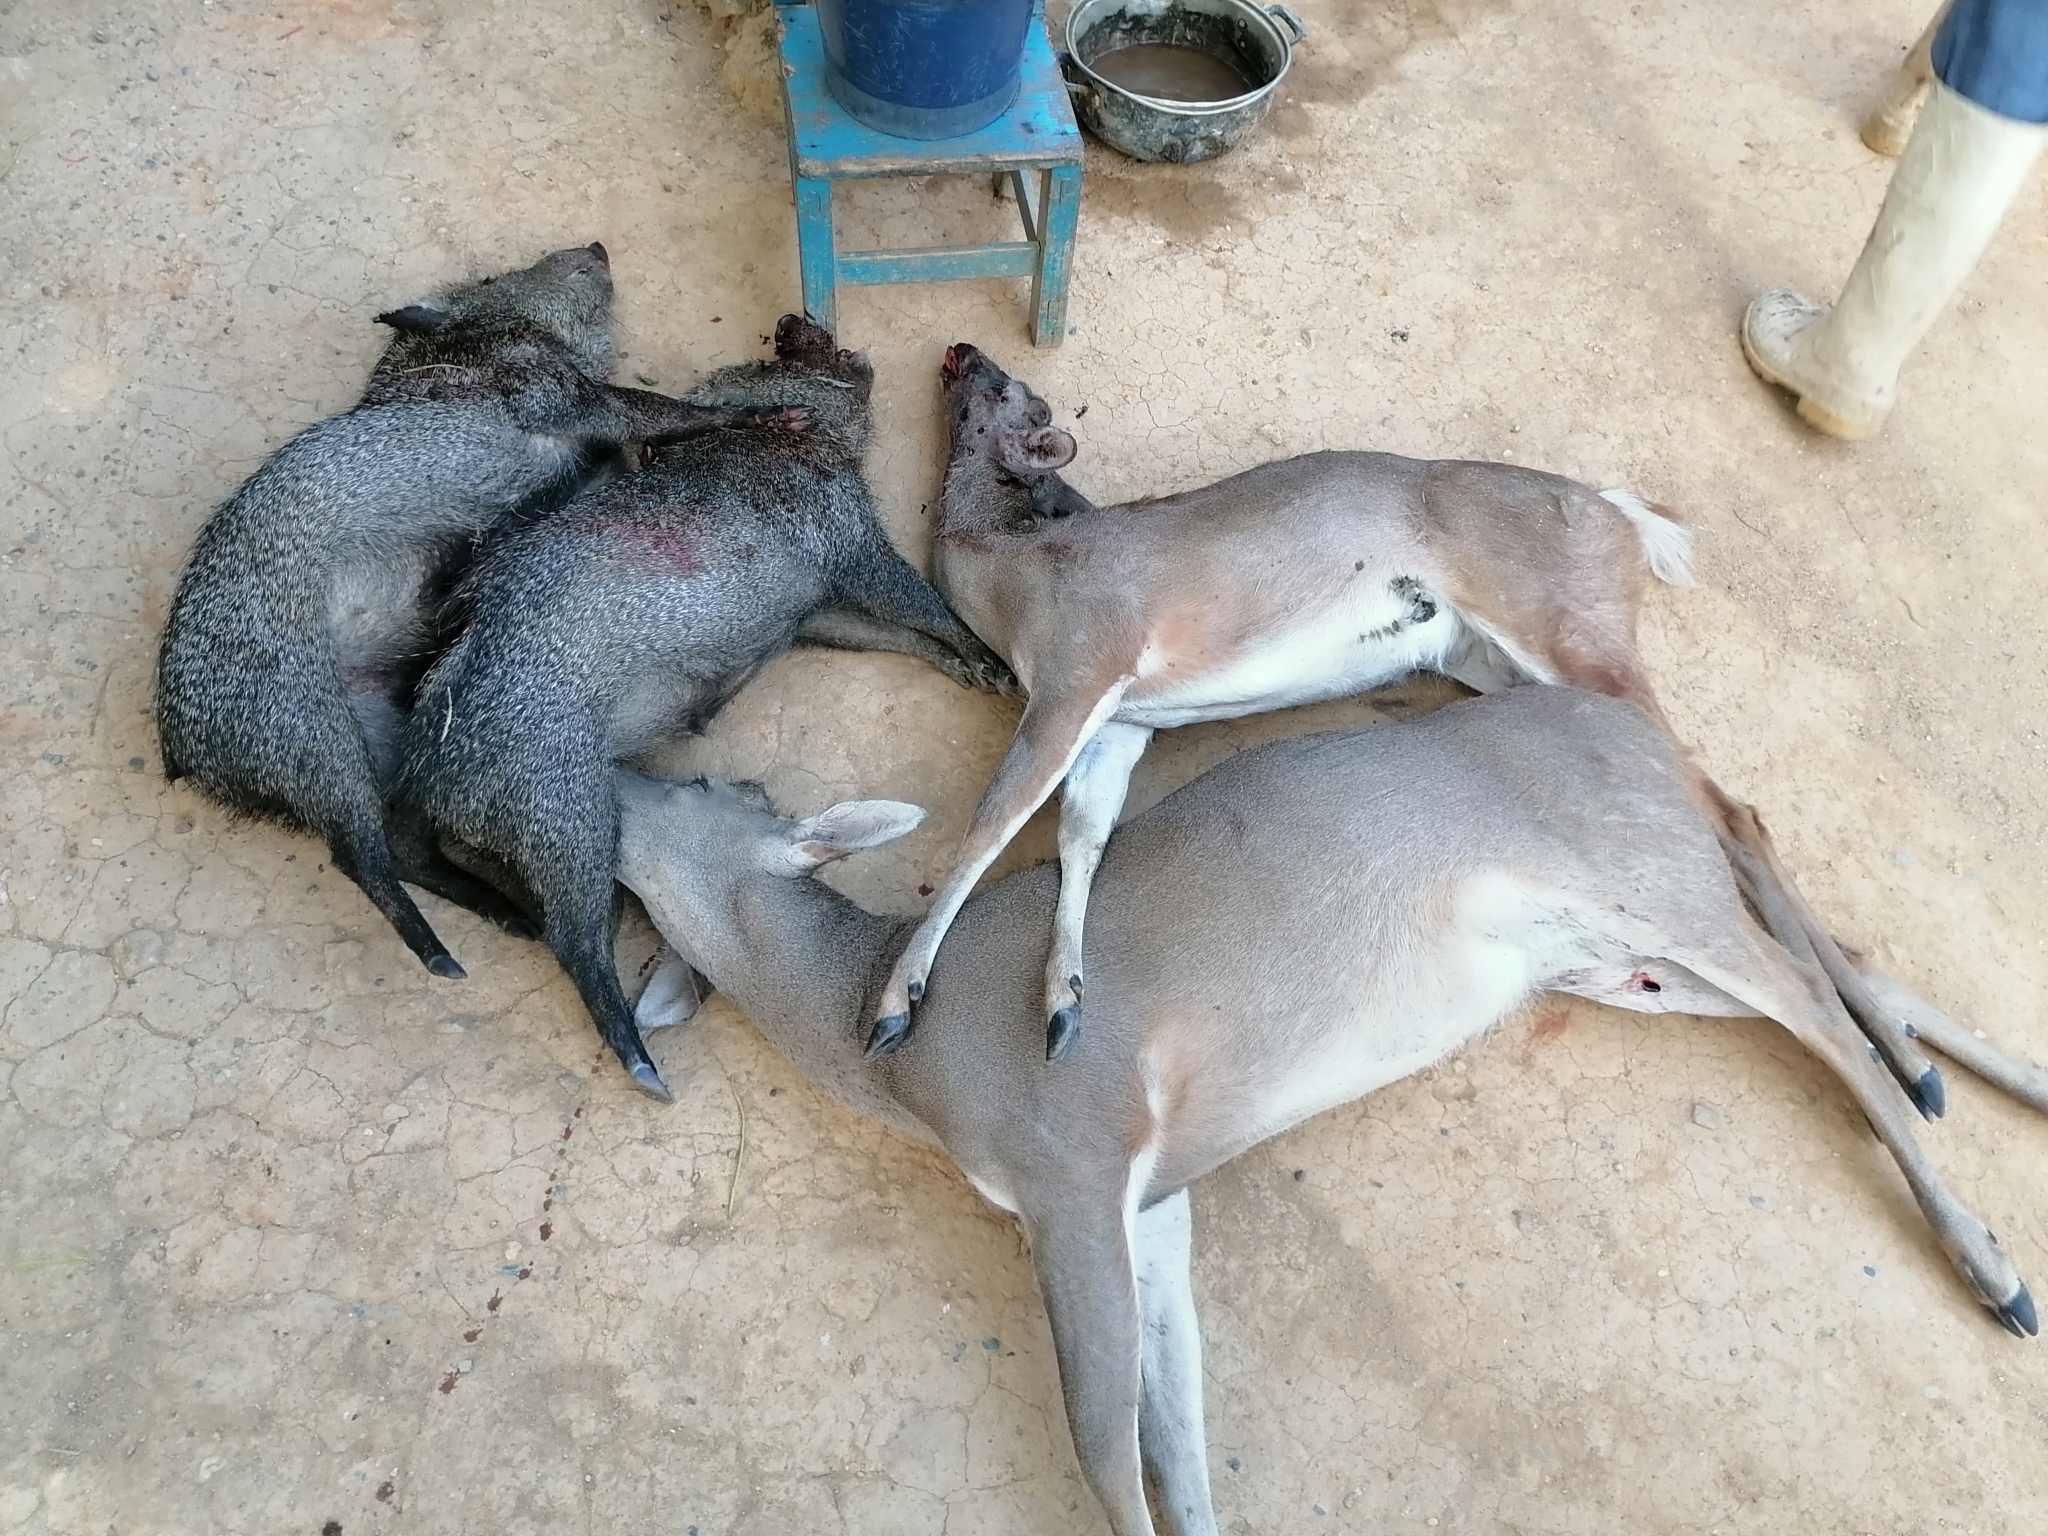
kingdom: Animalia
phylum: Chordata
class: Mammalia
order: Artiodactyla
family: Tayassuidae
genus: Pecari
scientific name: Pecari tajacu
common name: Collared peccary
